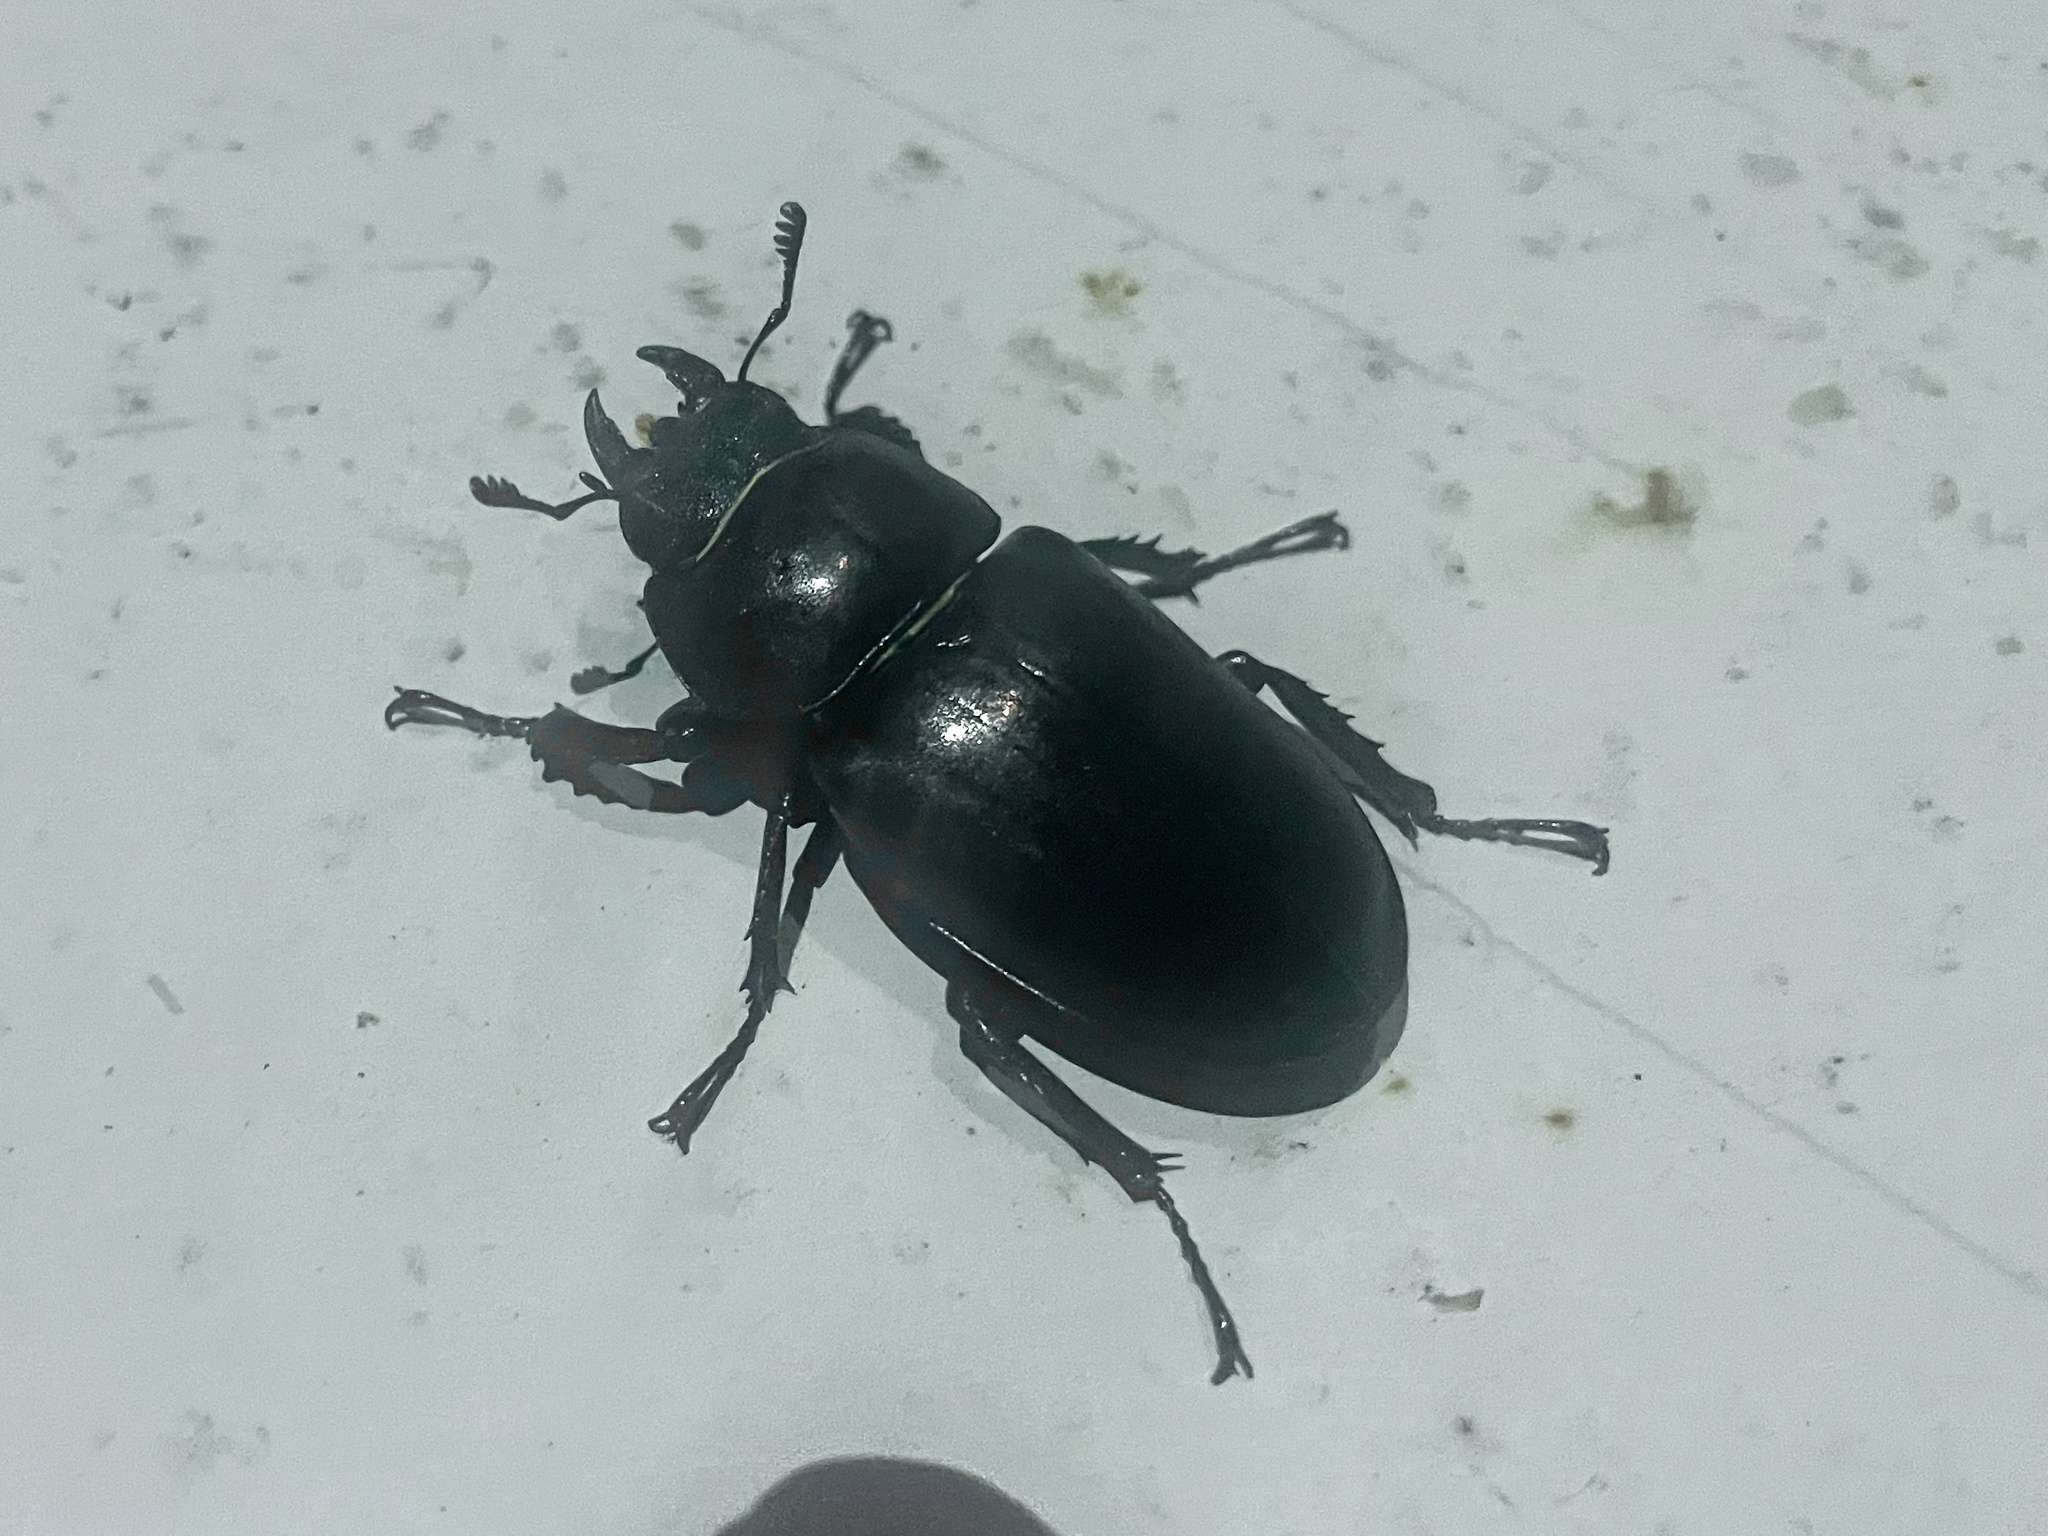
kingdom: Animalia
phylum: Arthropoda
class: Insecta
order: Coleoptera
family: Lucanidae
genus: Lucanus
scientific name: Lucanus cervus
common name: Stag beetle
